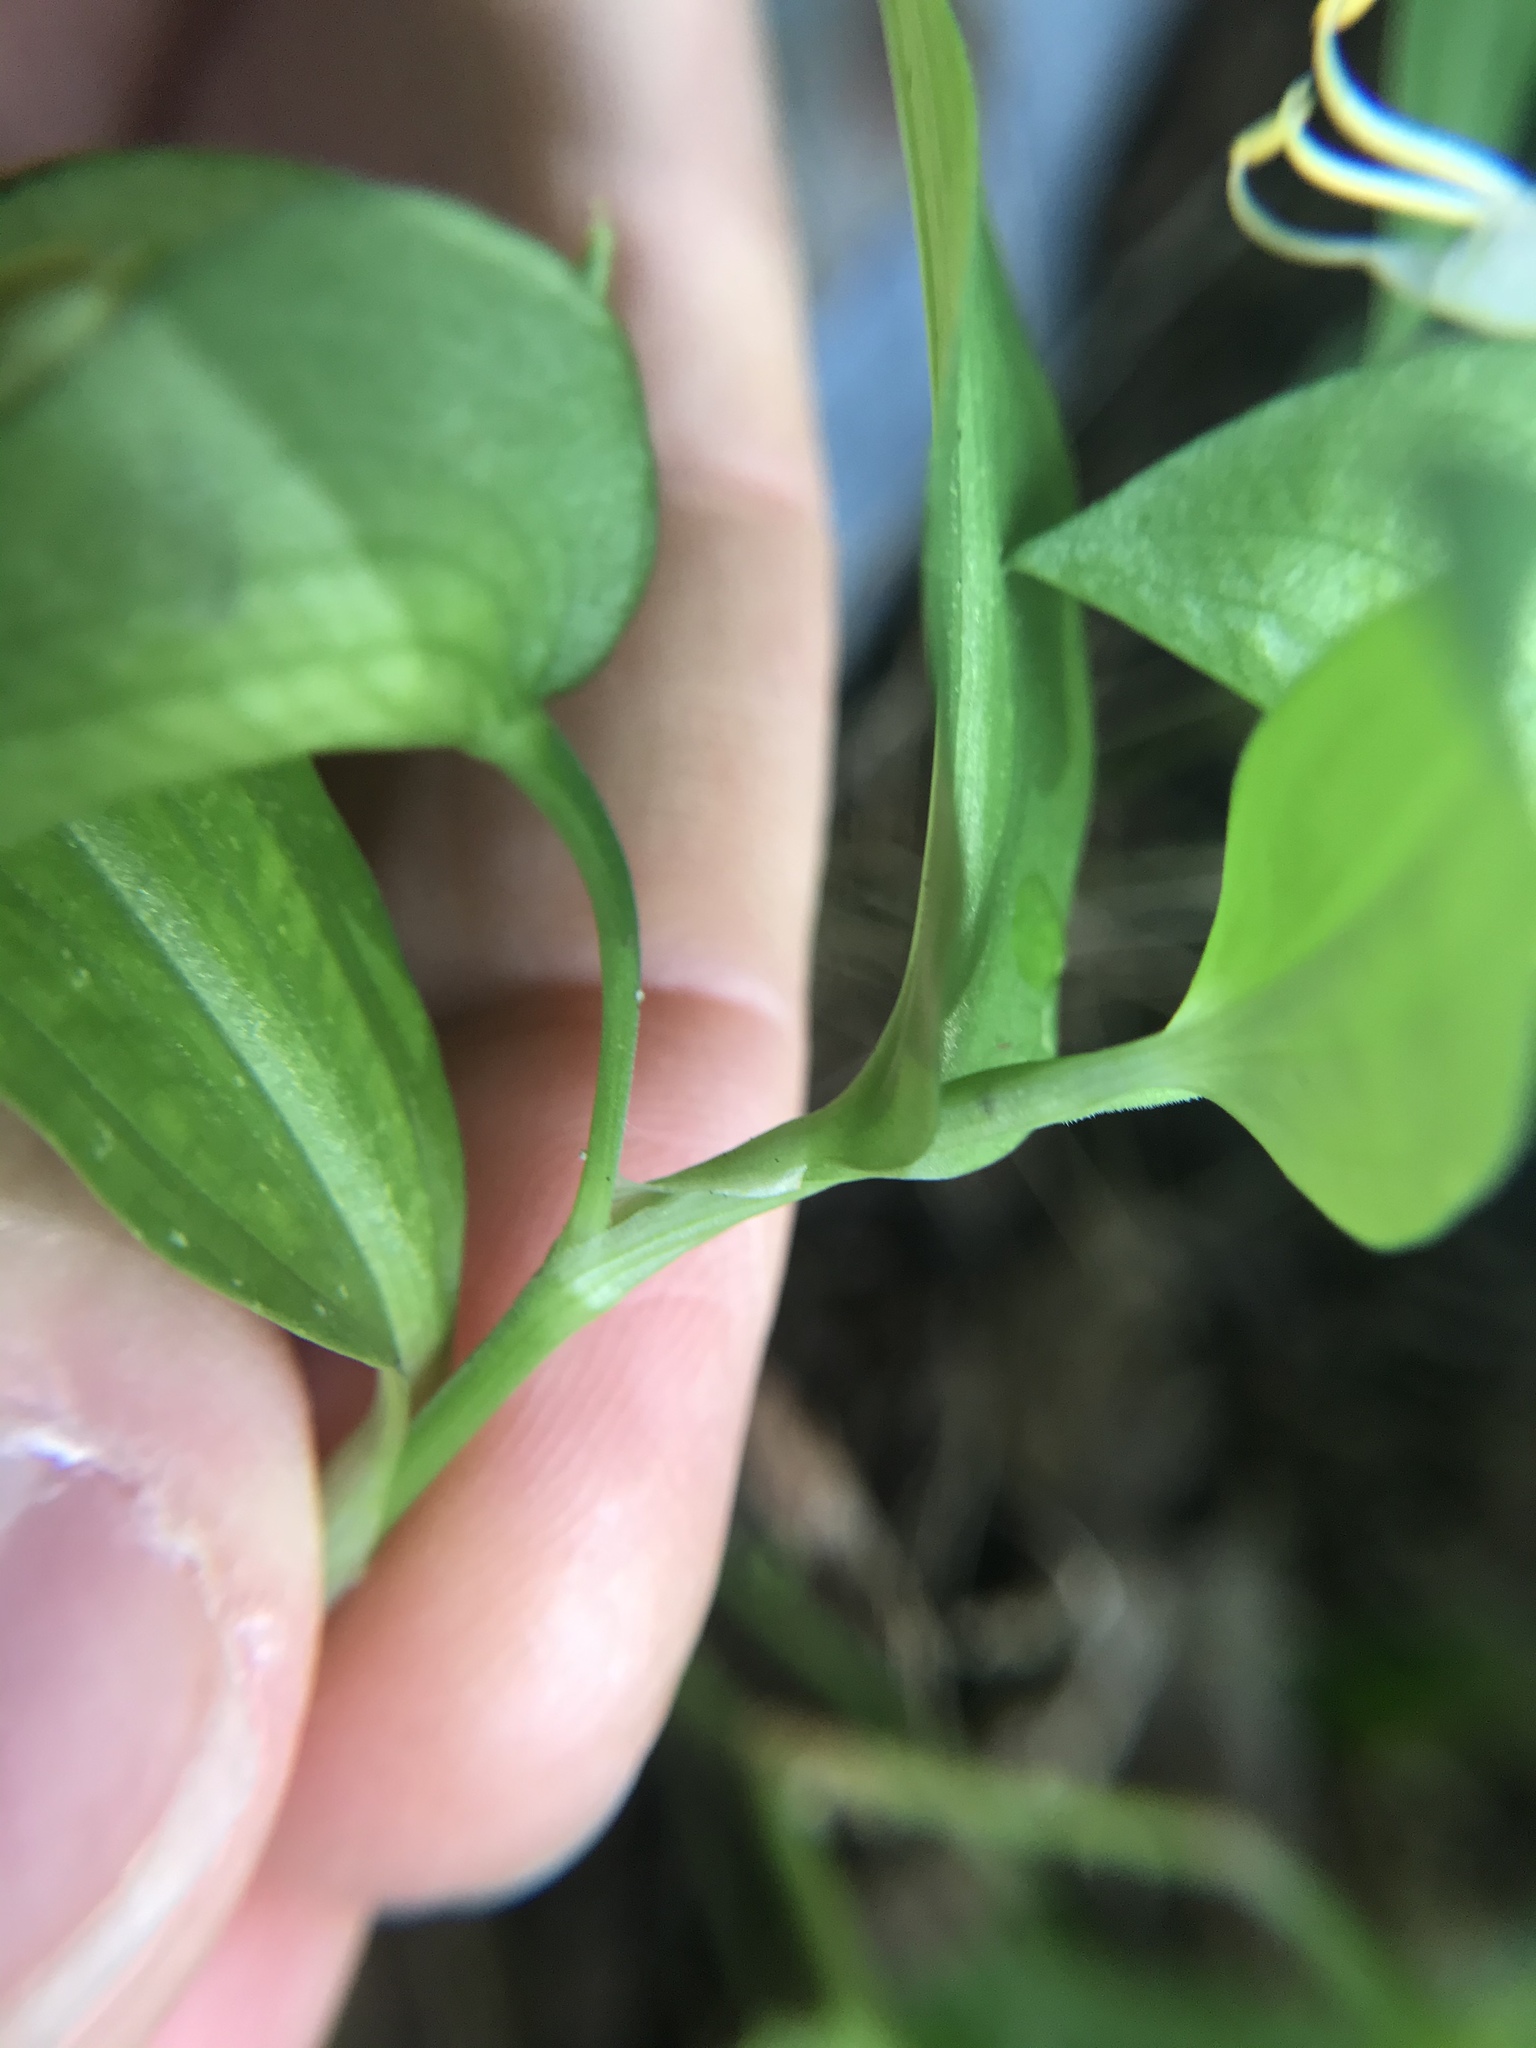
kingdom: Plantae
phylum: Tracheophyta
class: Liliopsida
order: Commelinales
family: Commelinaceae
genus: Commelina
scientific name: Commelina communis
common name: Asiatic dayflower
